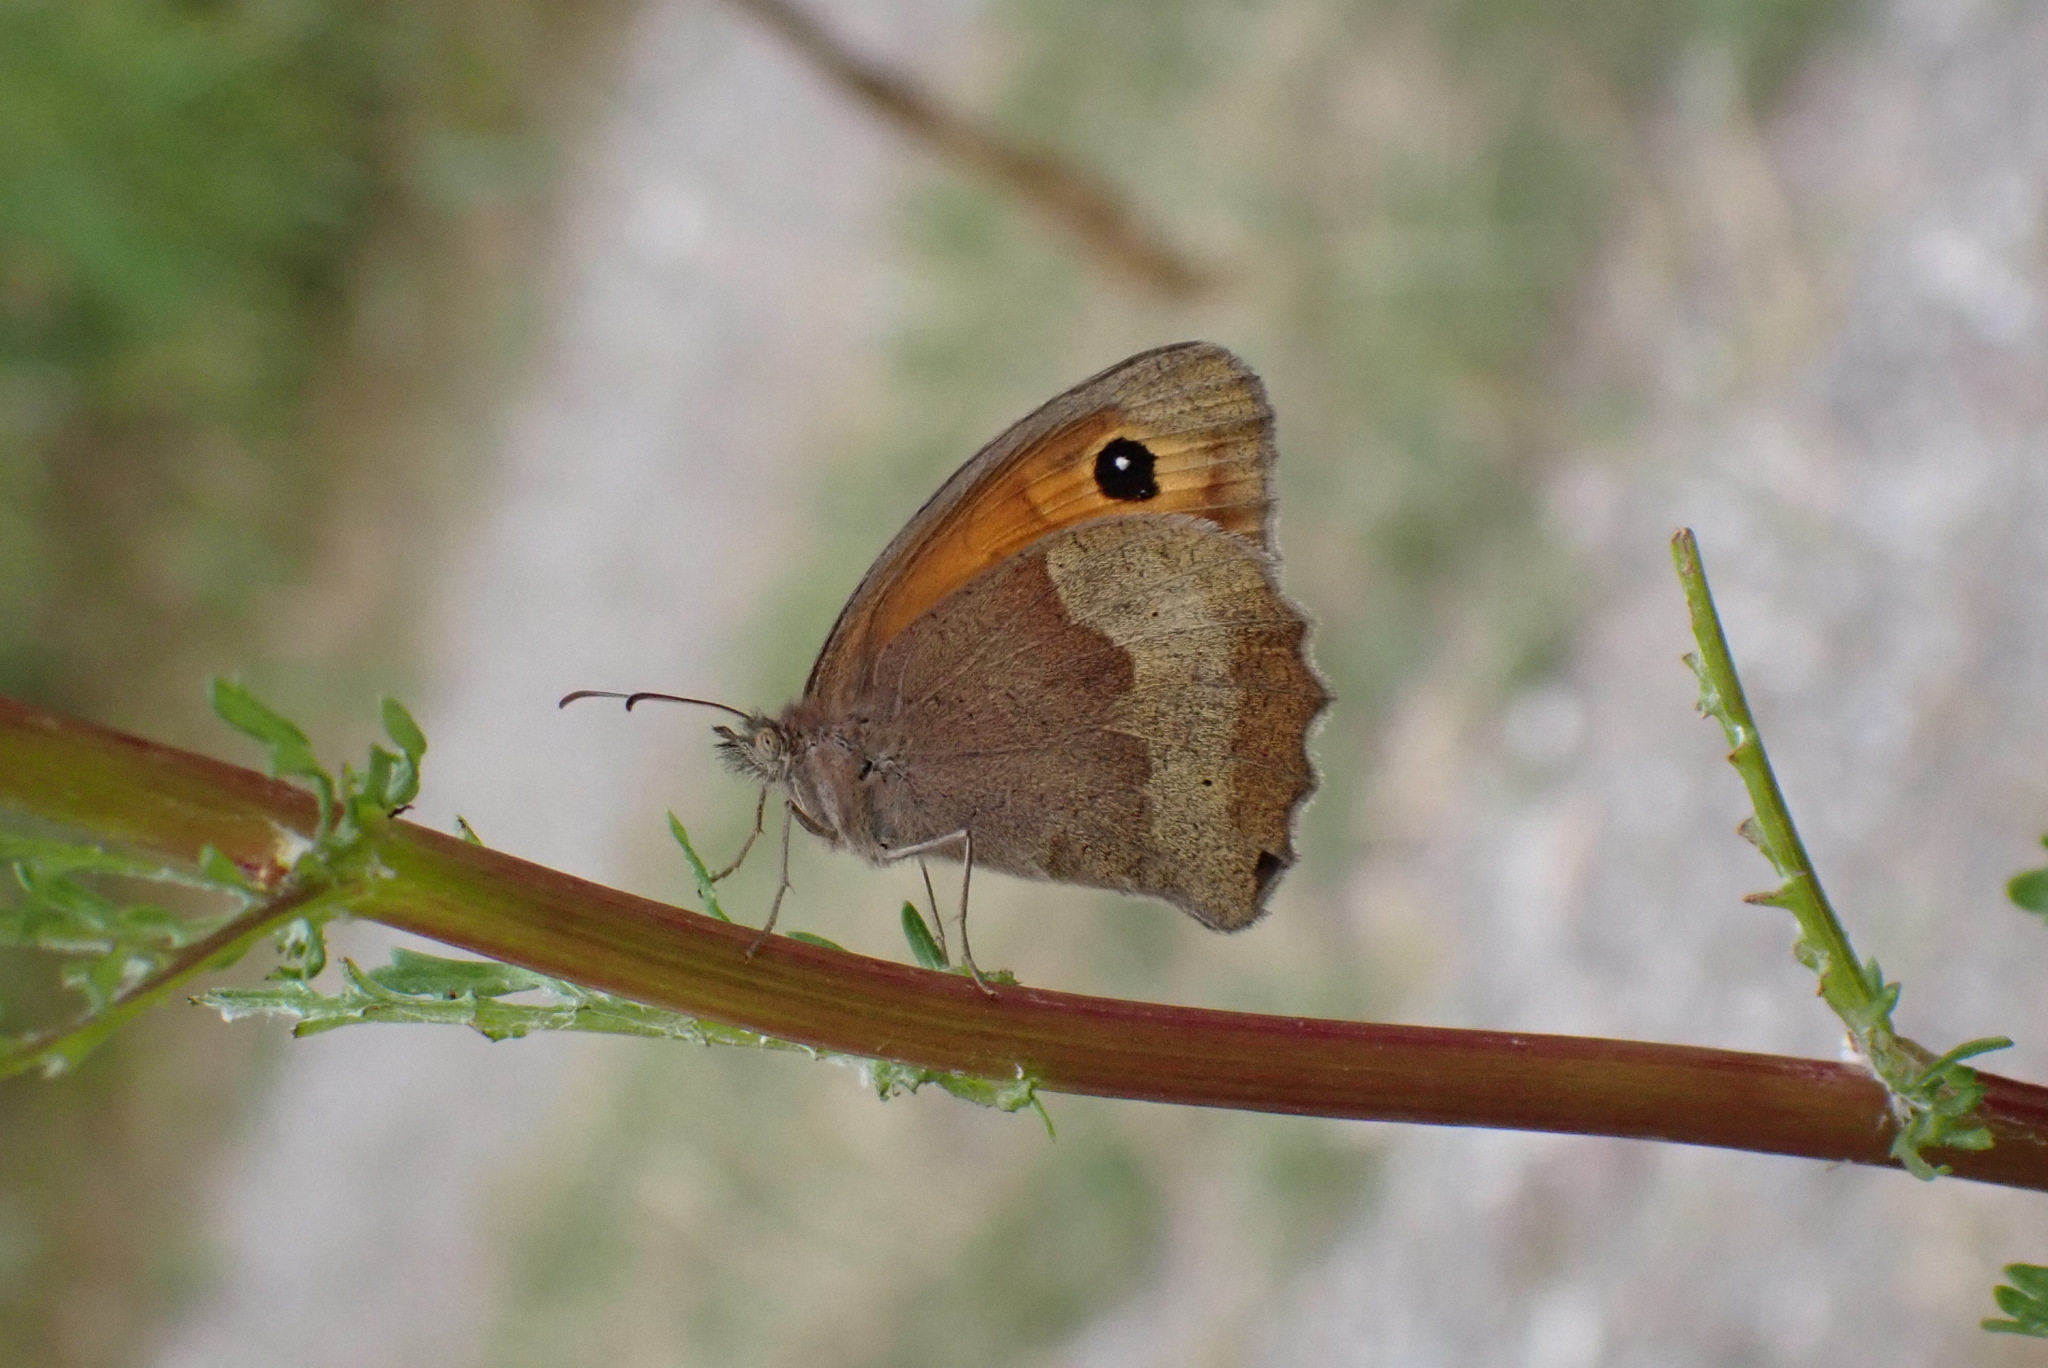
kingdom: Animalia
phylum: Arthropoda
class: Insecta
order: Lepidoptera
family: Nymphalidae
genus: Maniola
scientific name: Maniola jurtina
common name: Meadow brown
